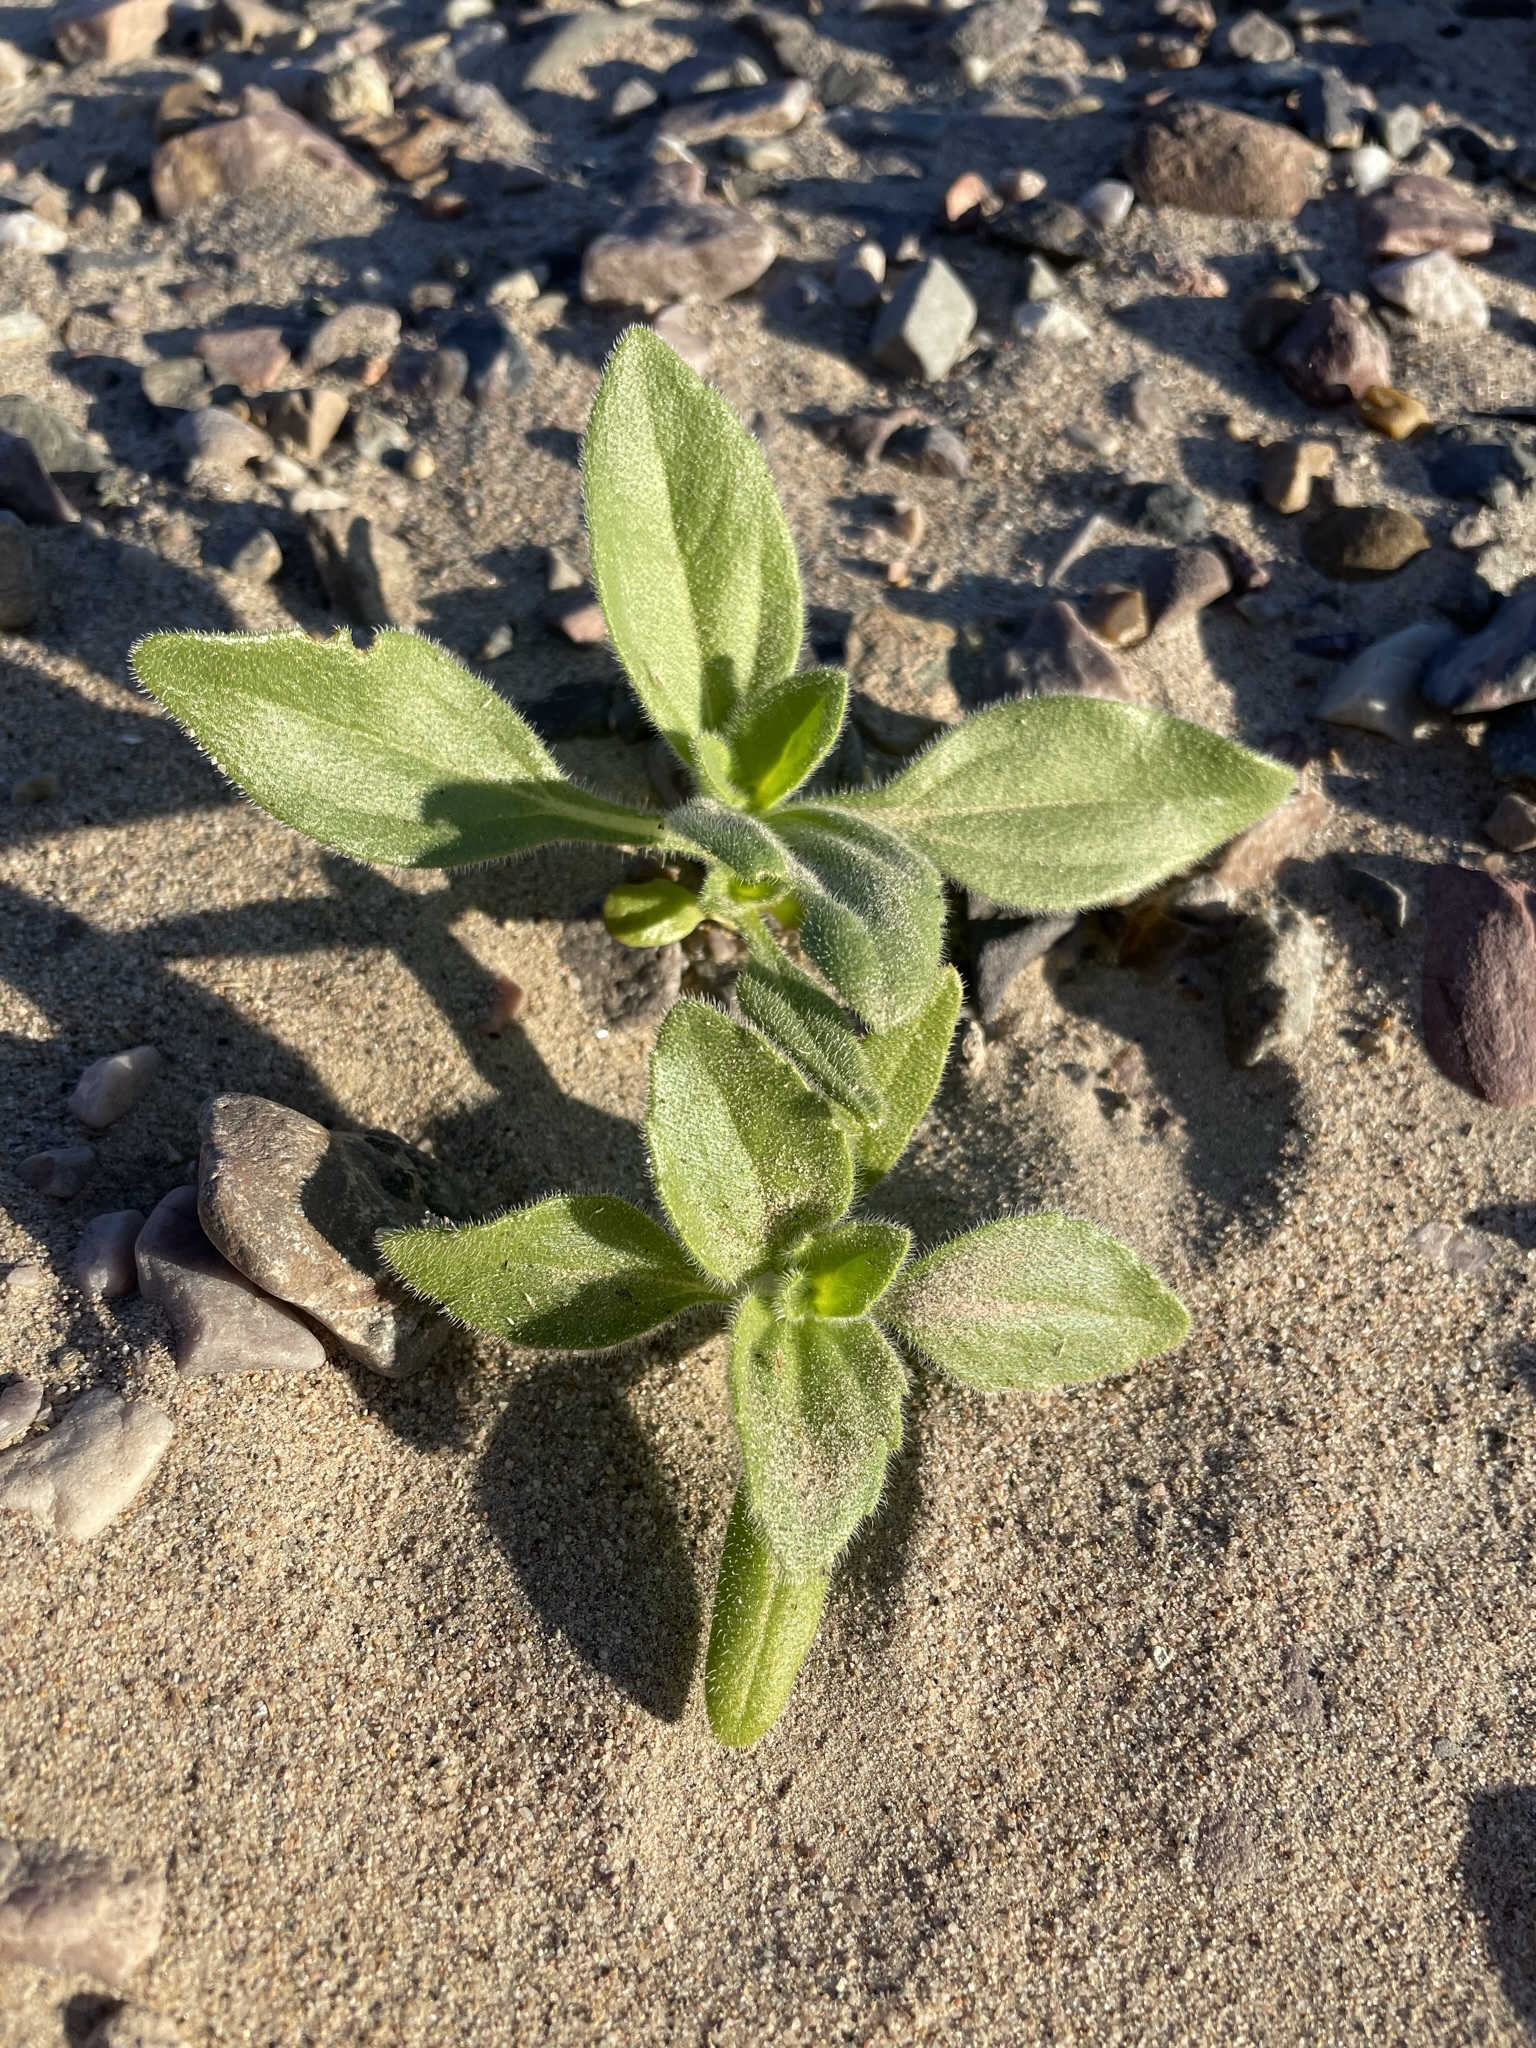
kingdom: Plantae
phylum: Tracheophyta
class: Magnoliopsida
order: Asterales
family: Asteraceae
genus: Geraea
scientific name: Geraea canescens
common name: Desert-gold
